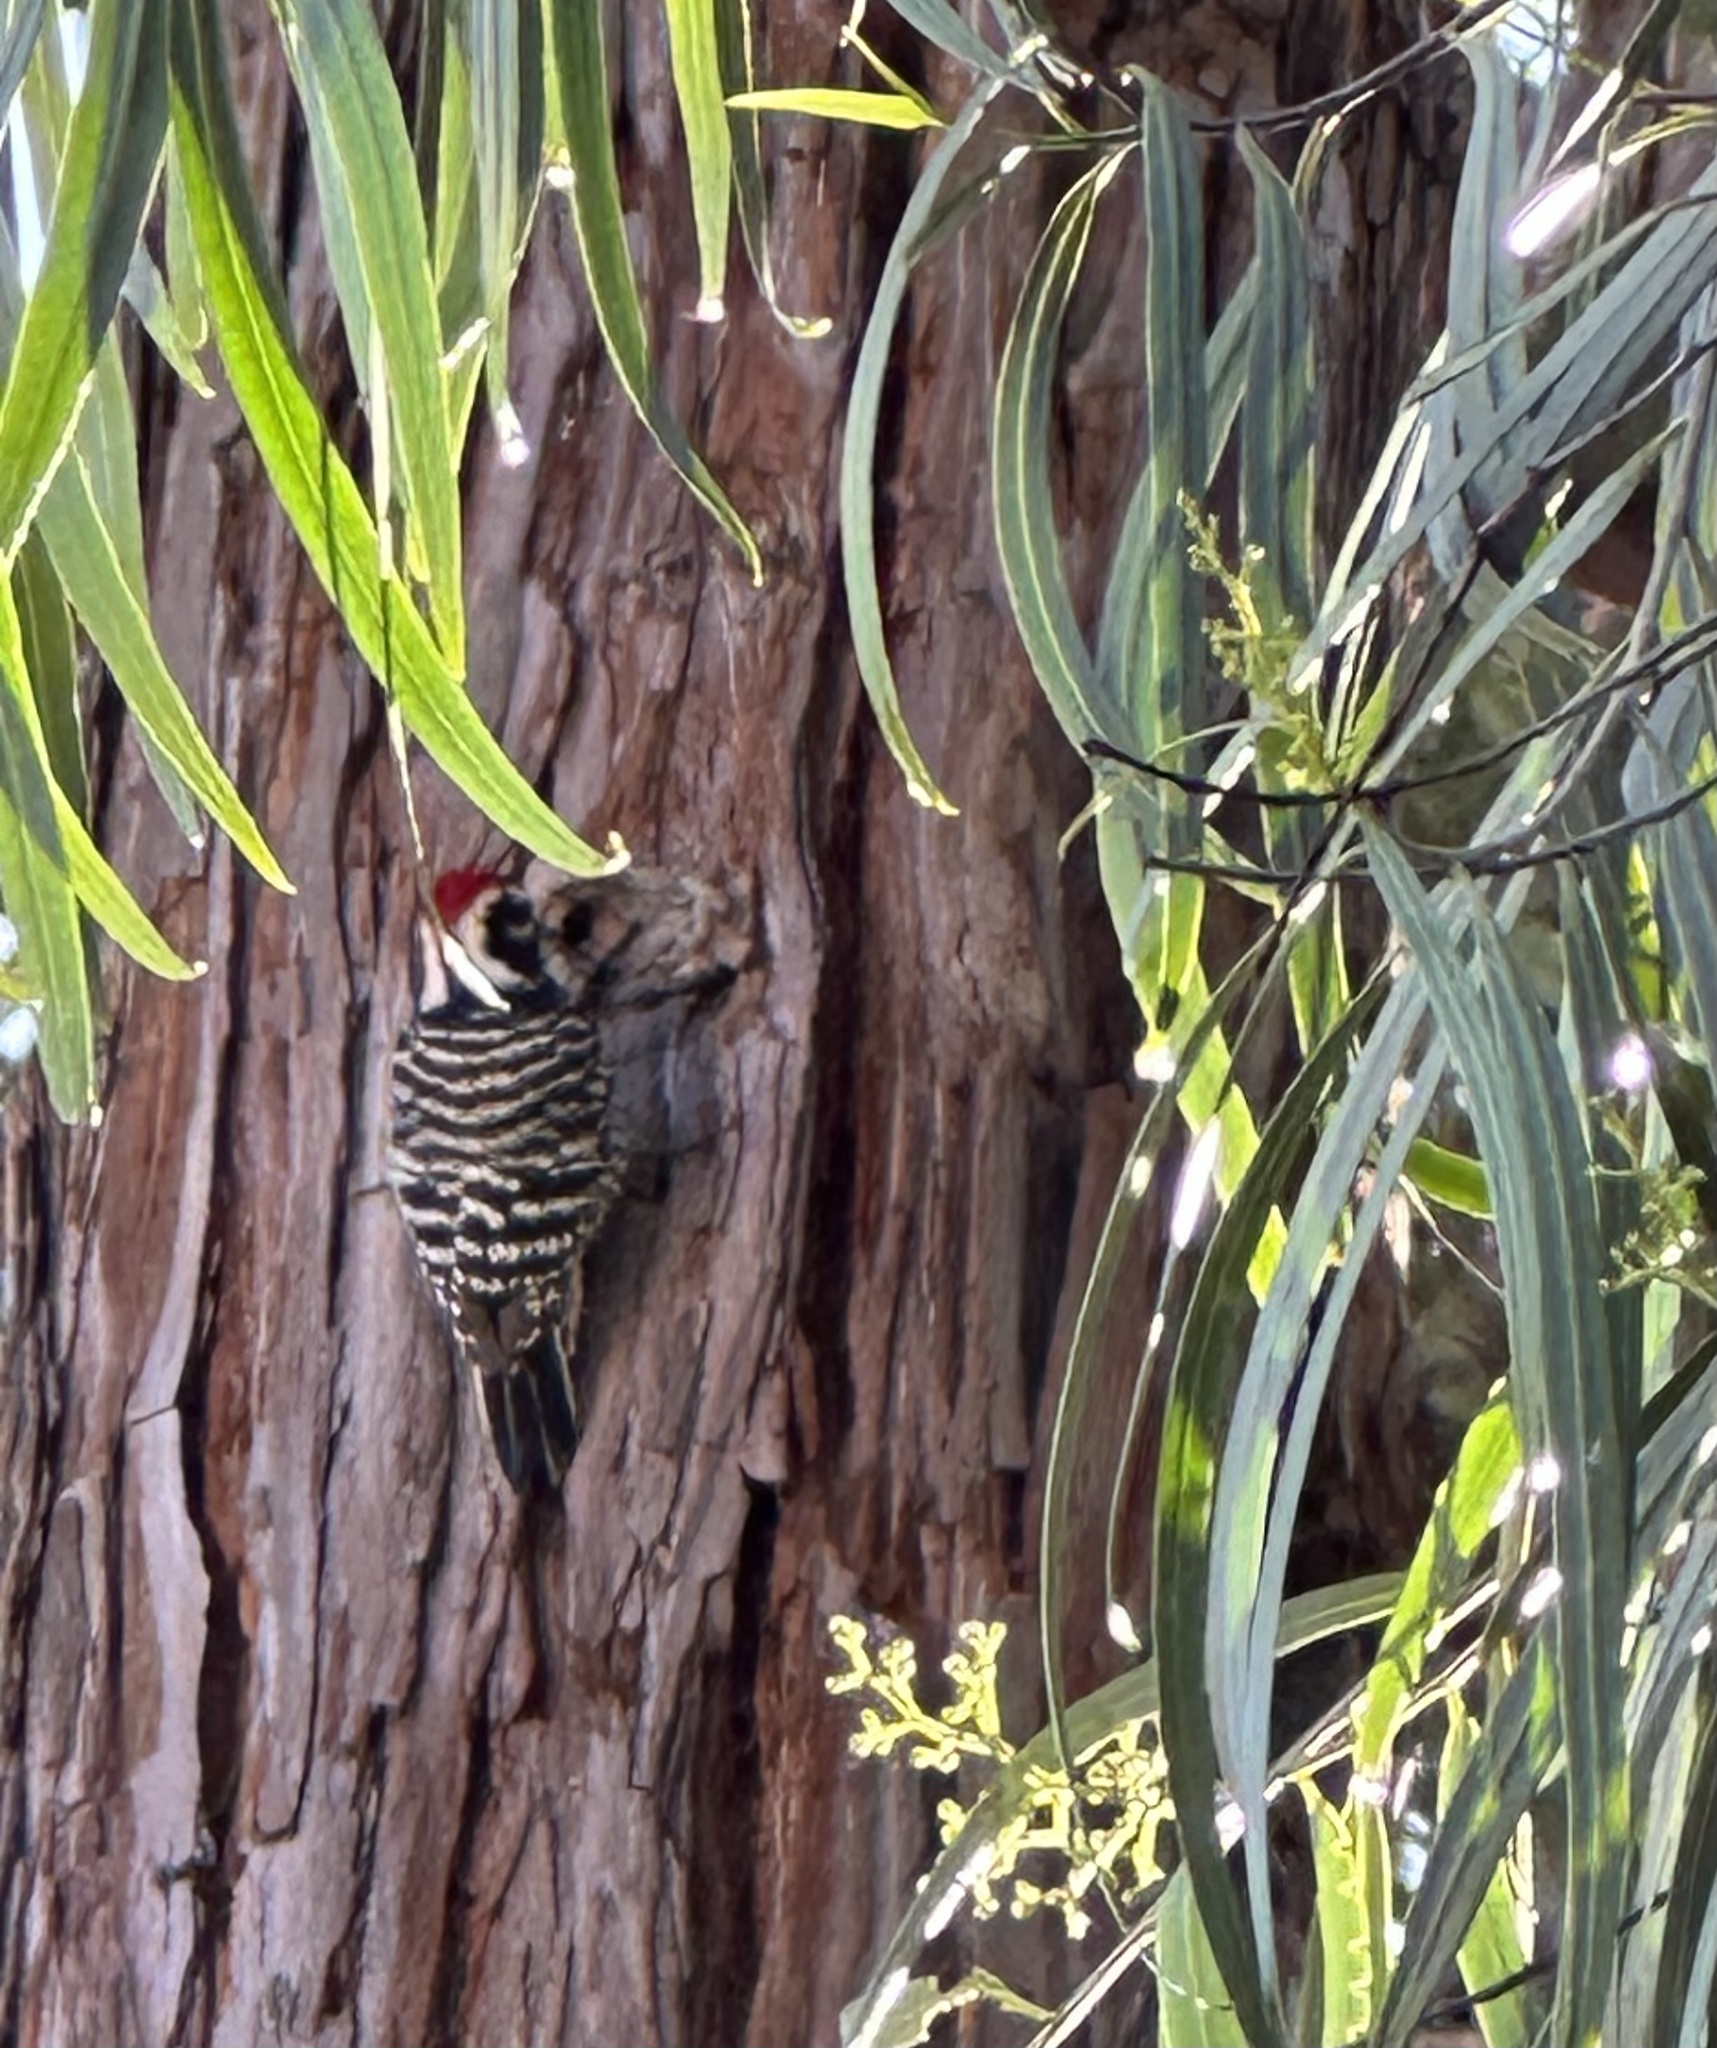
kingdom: Animalia
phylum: Chordata
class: Aves
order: Piciformes
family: Picidae
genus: Dryobates
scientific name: Dryobates nuttallii
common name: Nuttall's woodpecker
